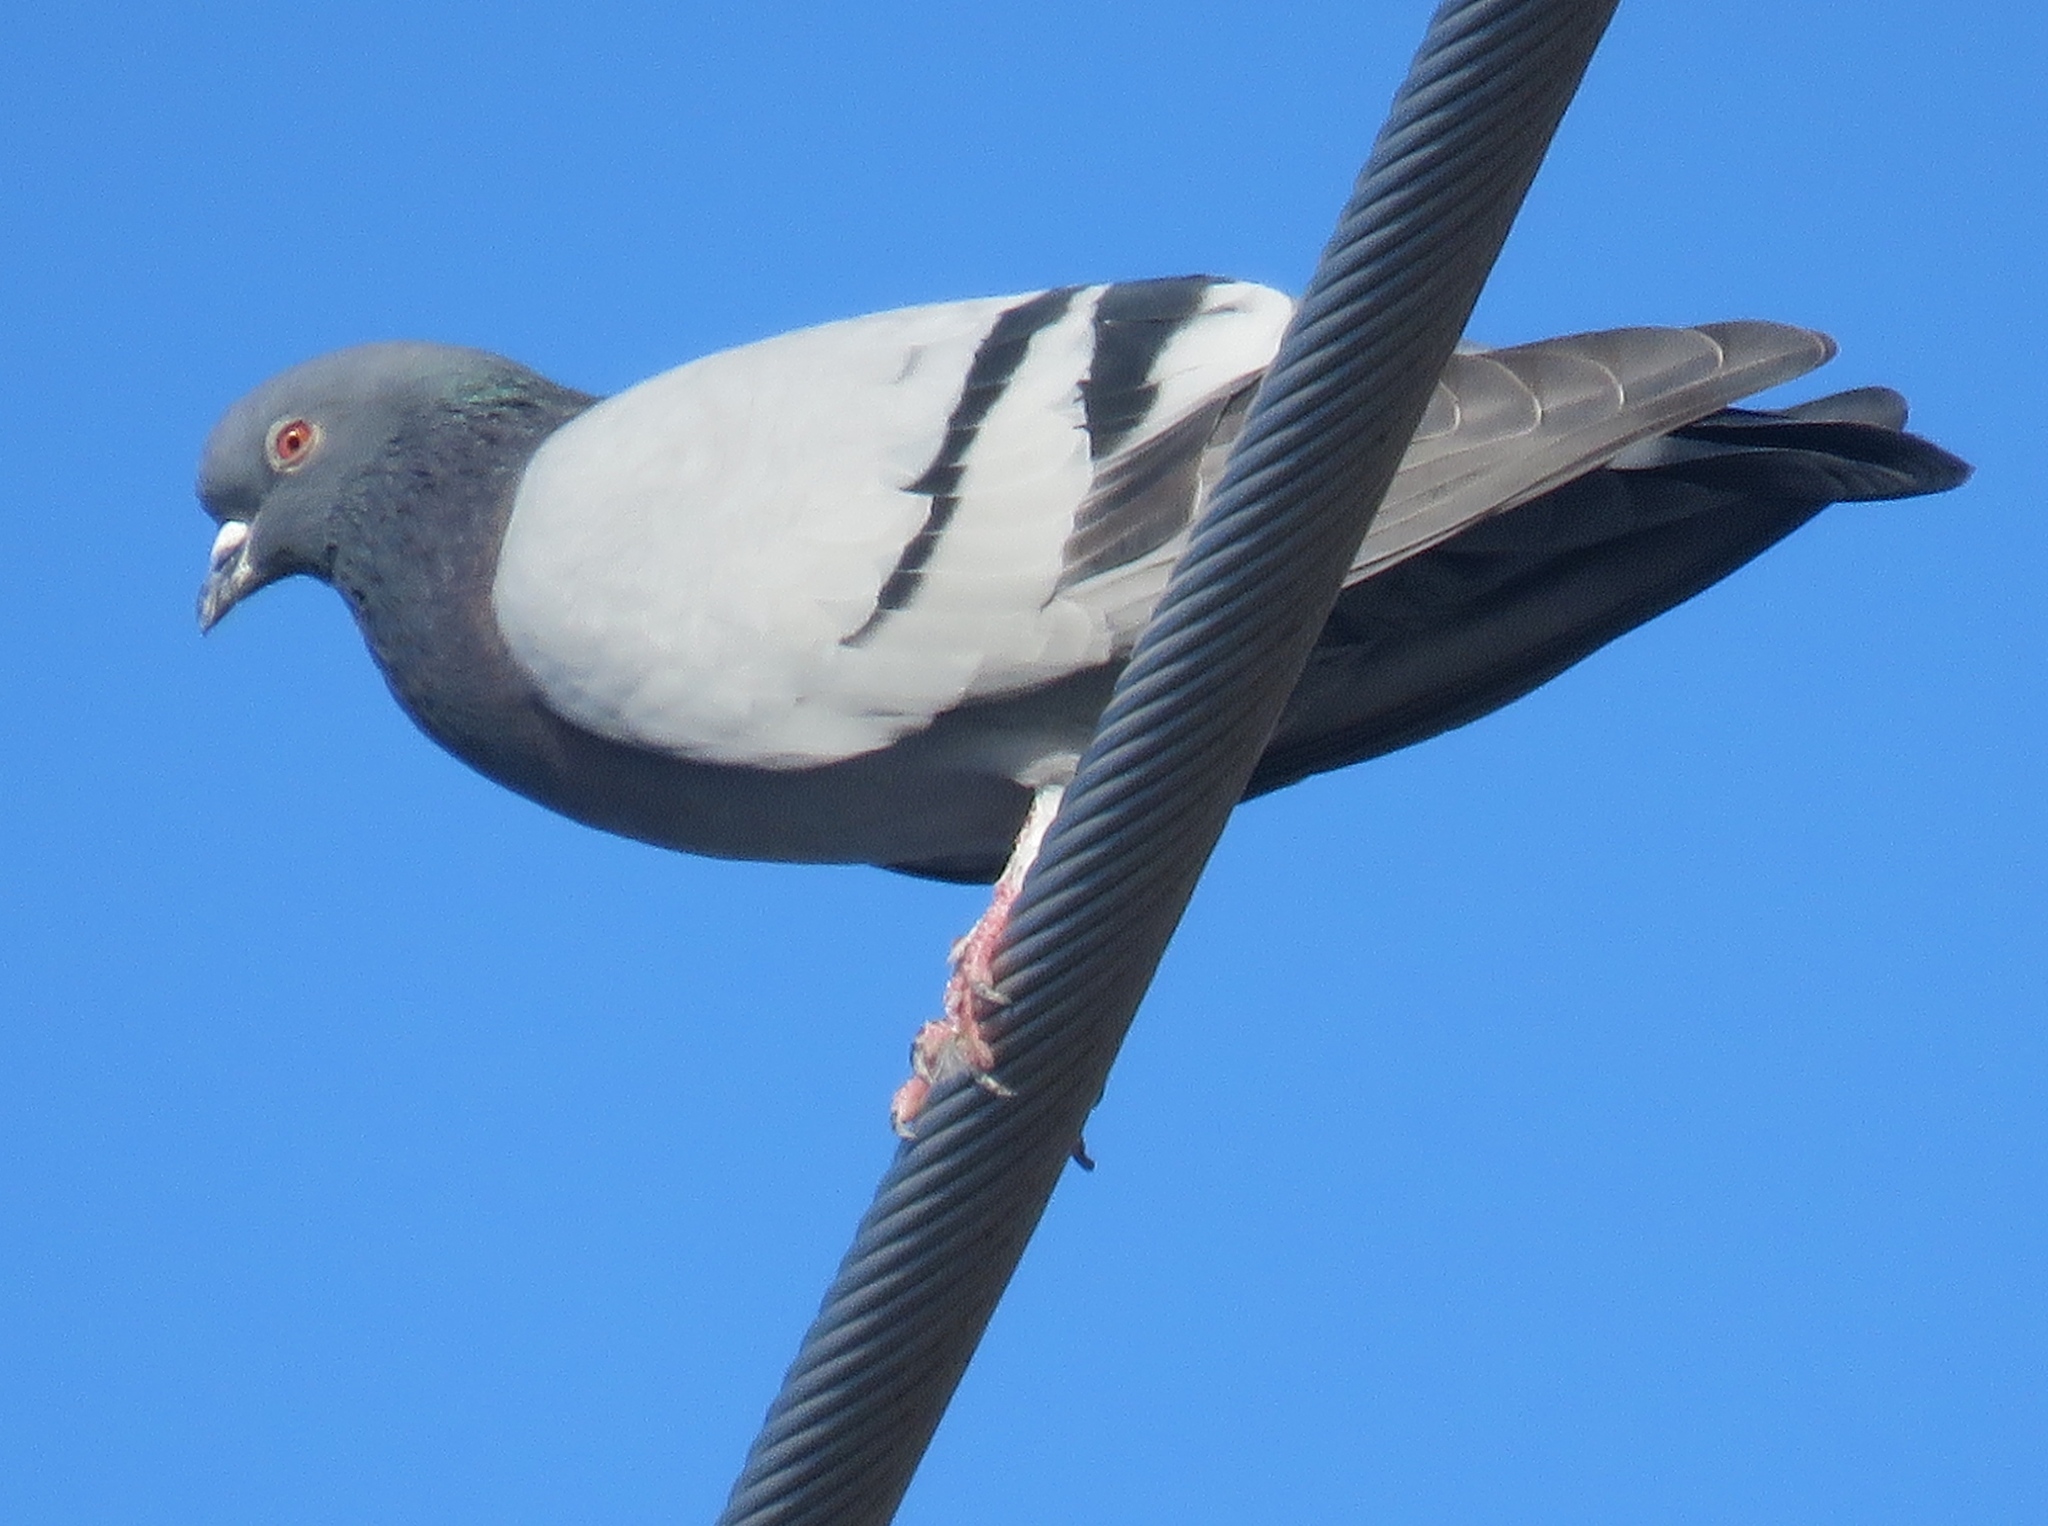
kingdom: Animalia
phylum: Chordata
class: Aves
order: Columbiformes
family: Columbidae
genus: Columba
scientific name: Columba livia
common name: Rock pigeon
